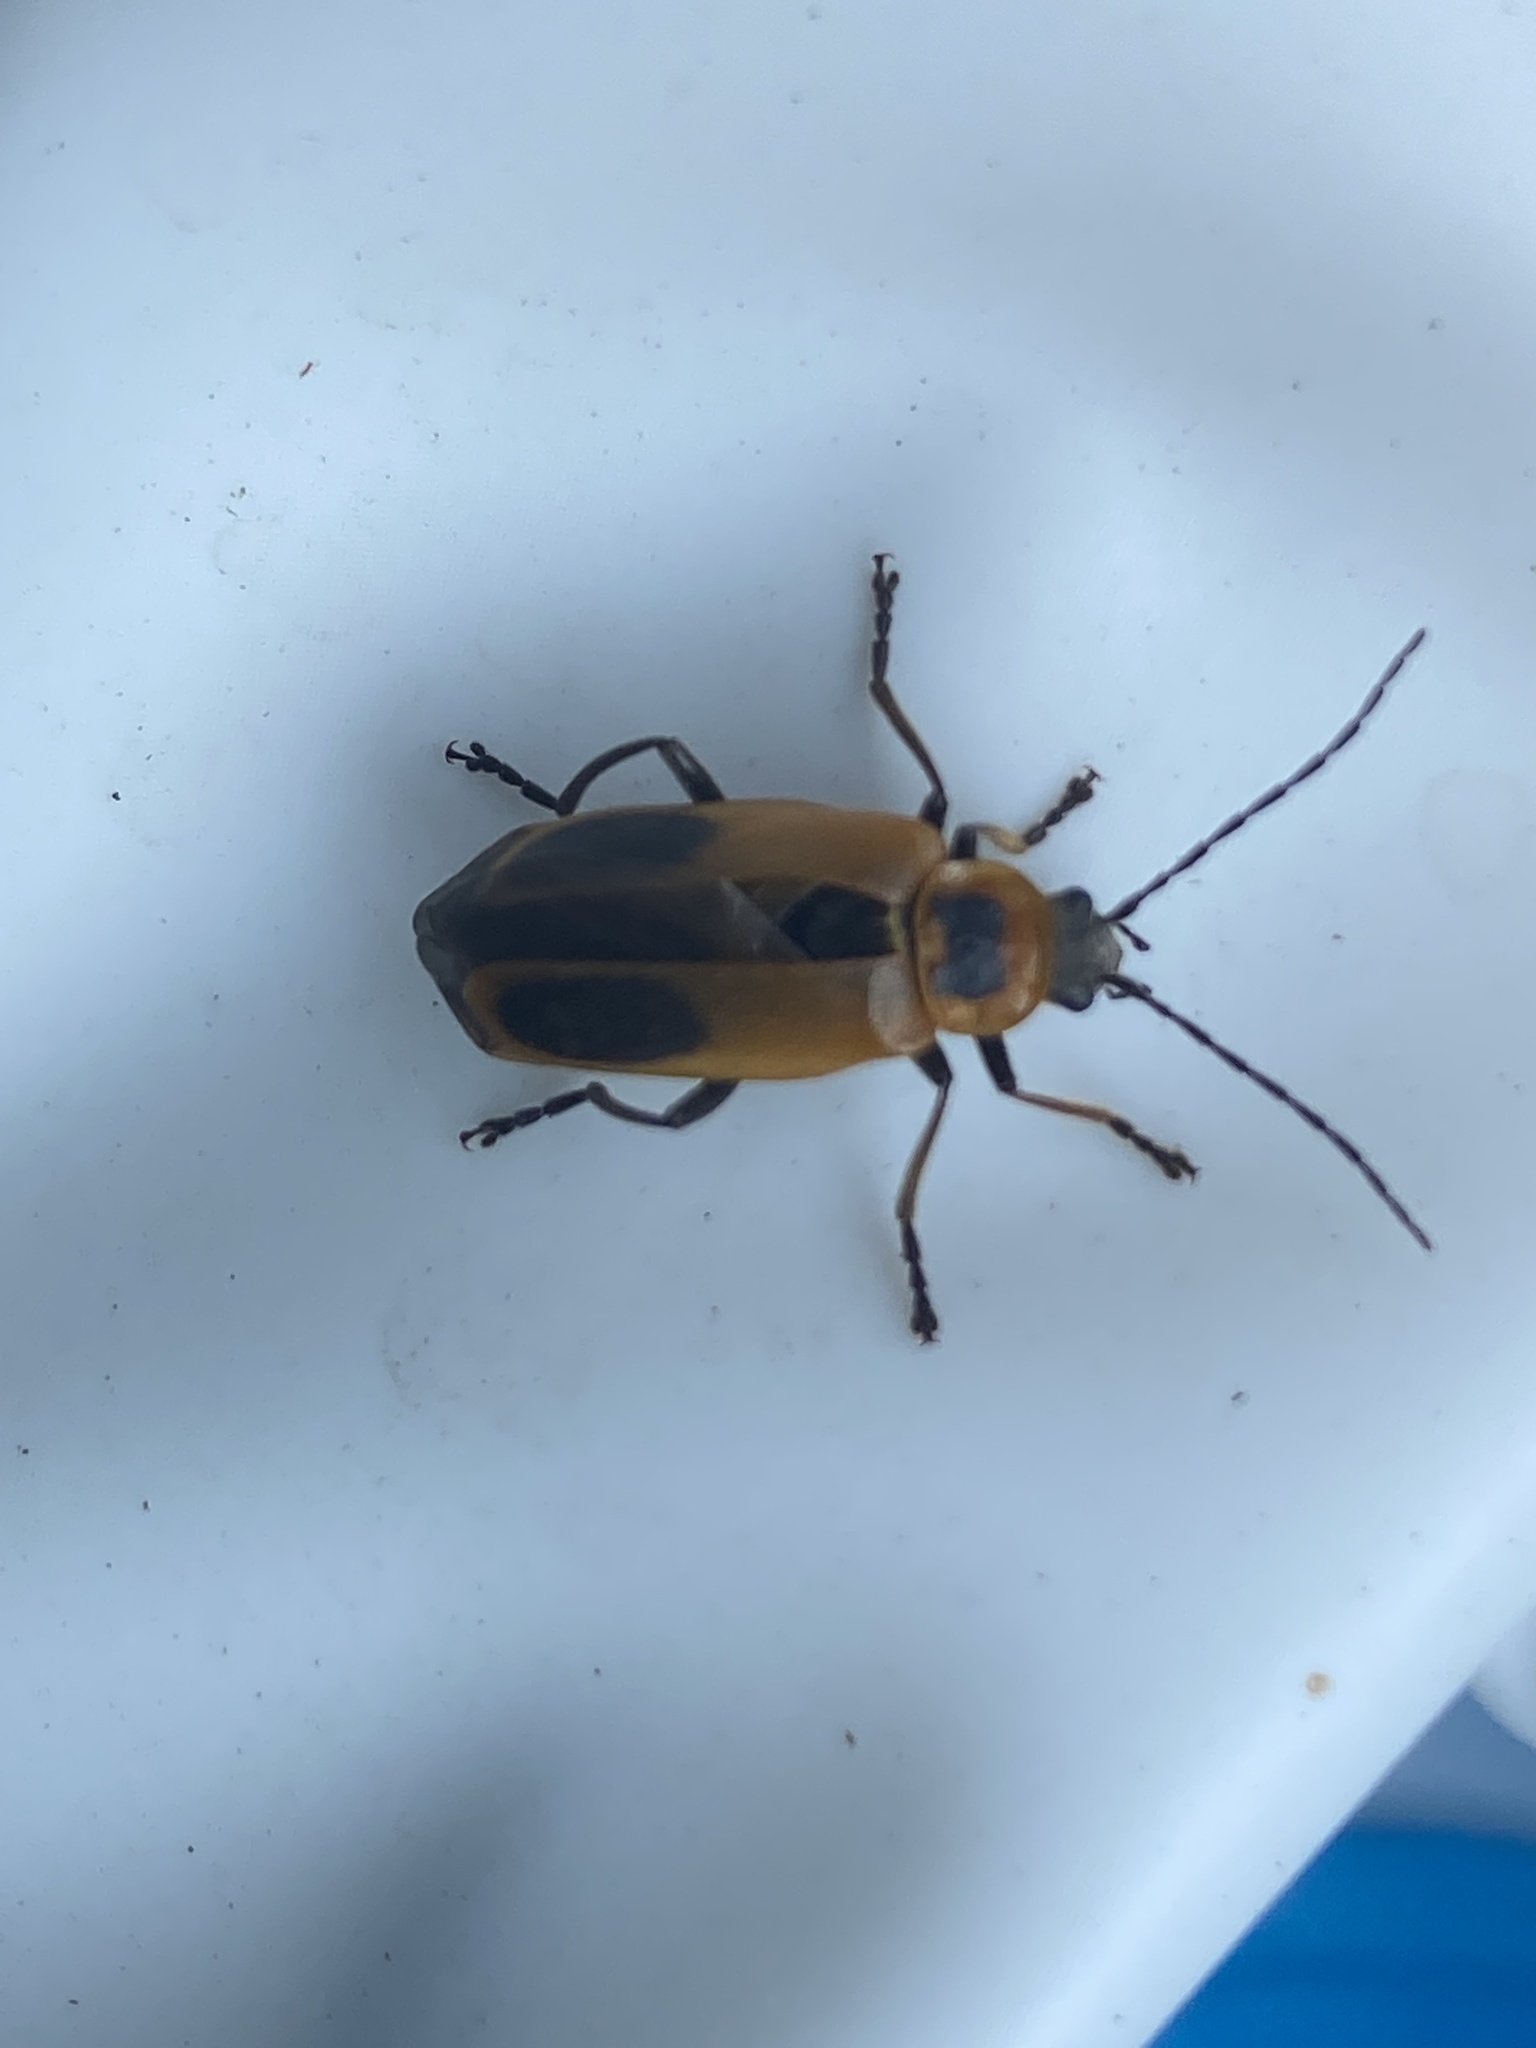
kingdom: Animalia
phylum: Arthropoda
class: Insecta
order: Coleoptera
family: Cantharidae
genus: Chauliognathus
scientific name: Chauliognathus pensylvanicus
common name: Goldenrod soldier beetle
